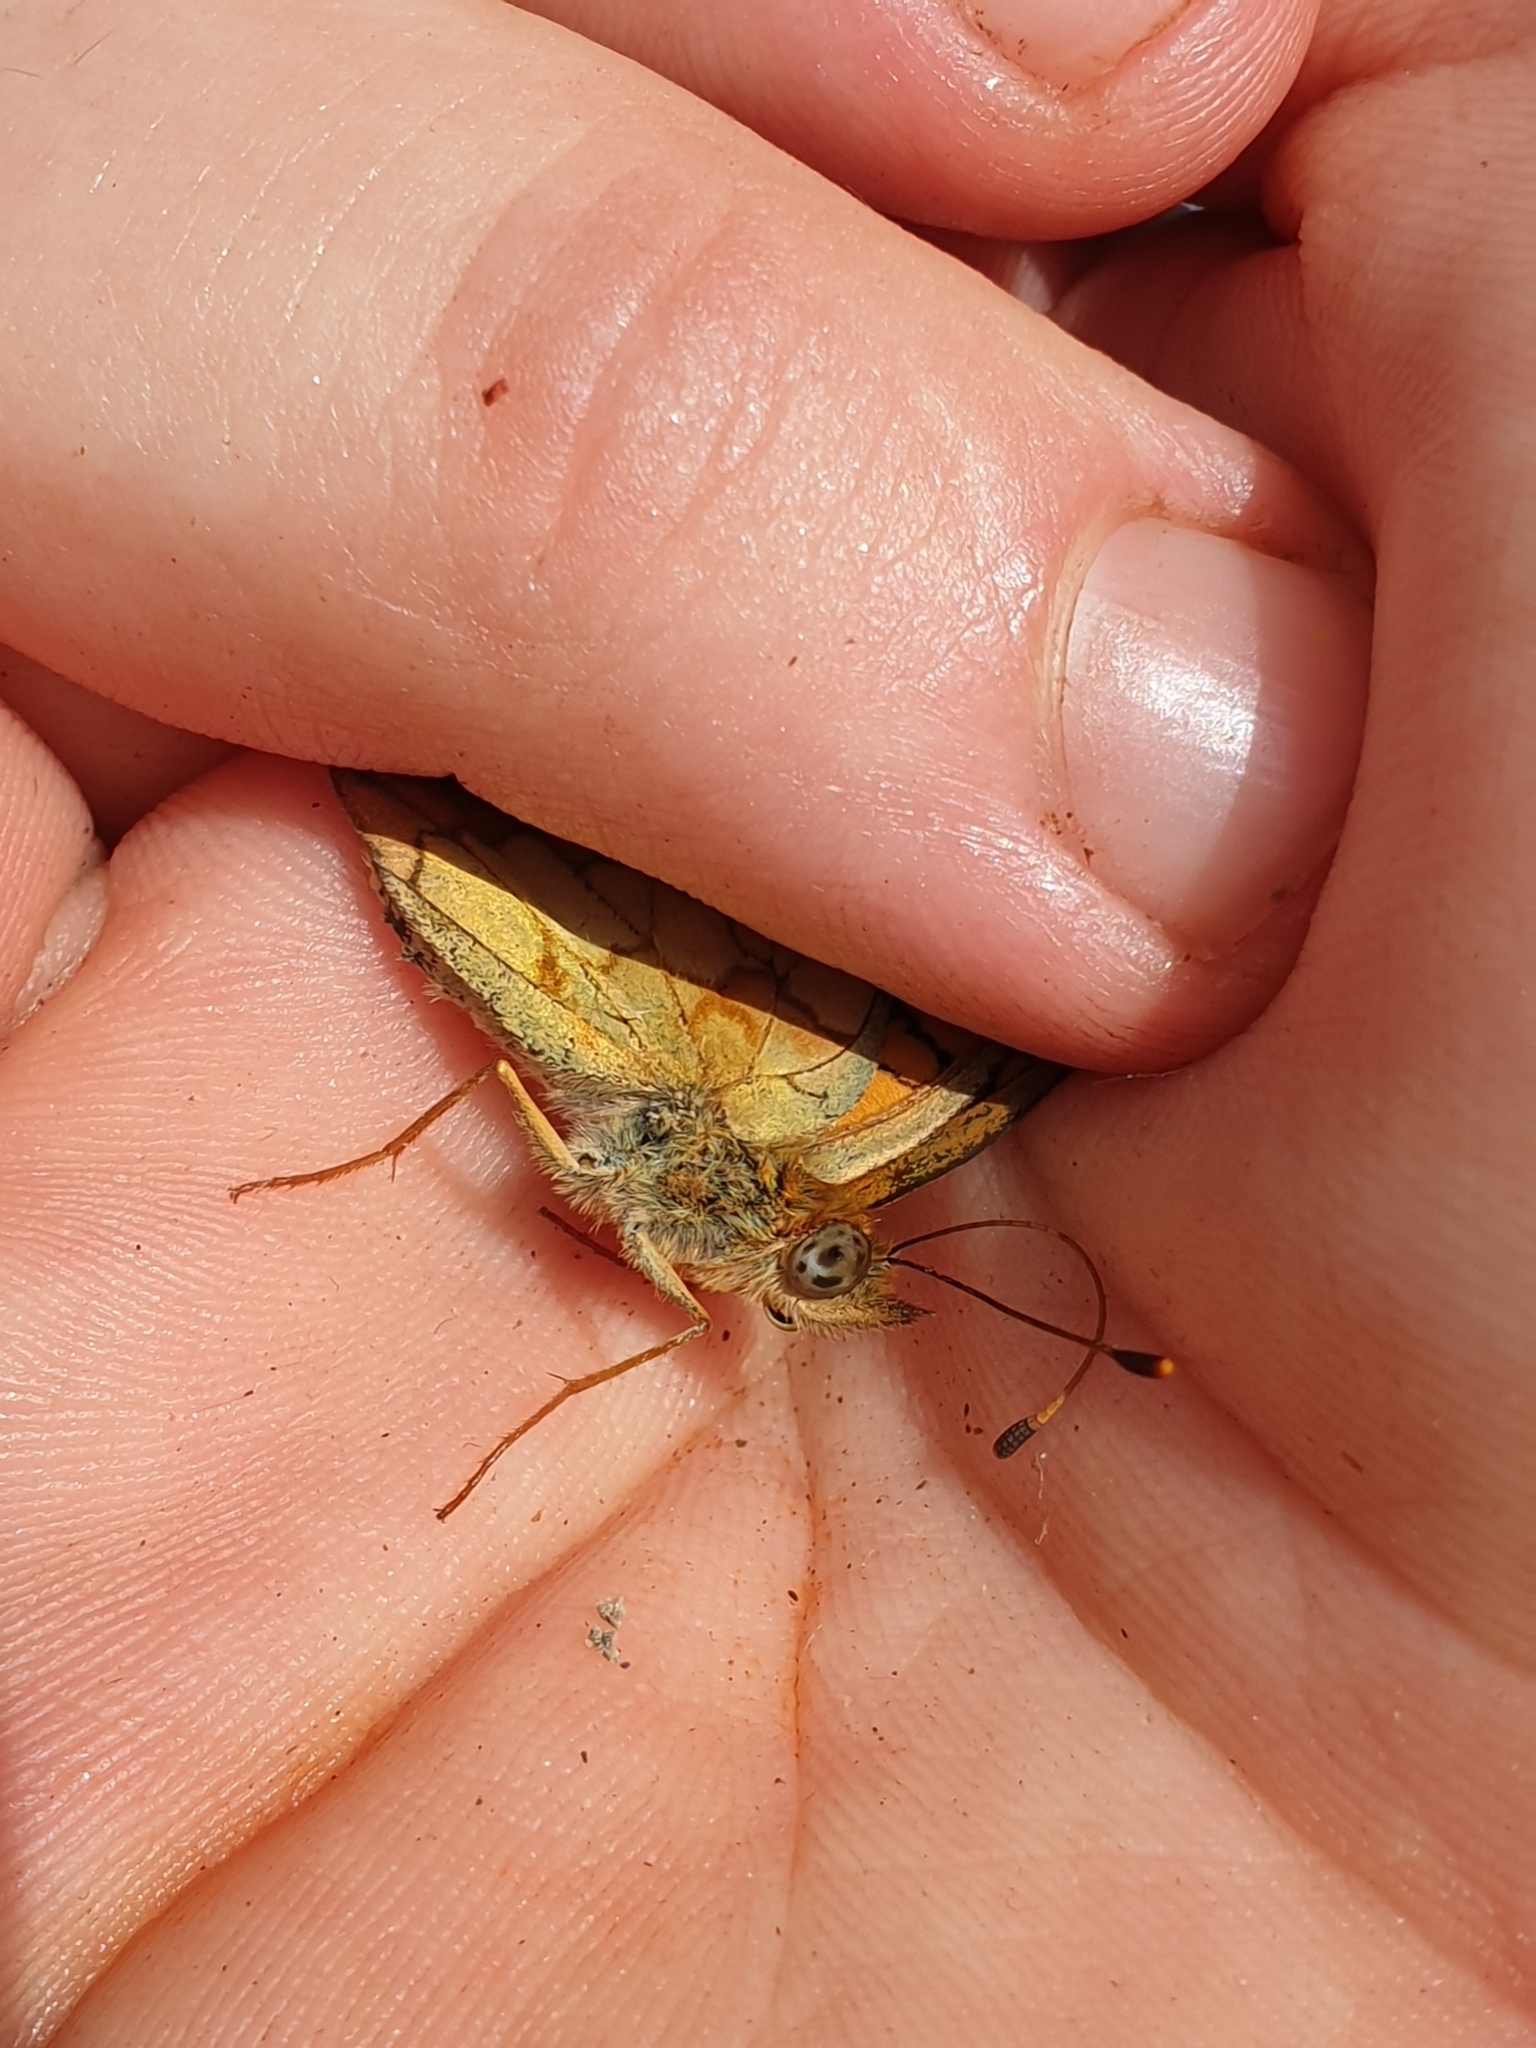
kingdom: Animalia
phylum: Arthropoda
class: Insecta
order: Lepidoptera
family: Nymphalidae
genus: Brenthis
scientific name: Brenthis daphne
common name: Marbled fritillary
